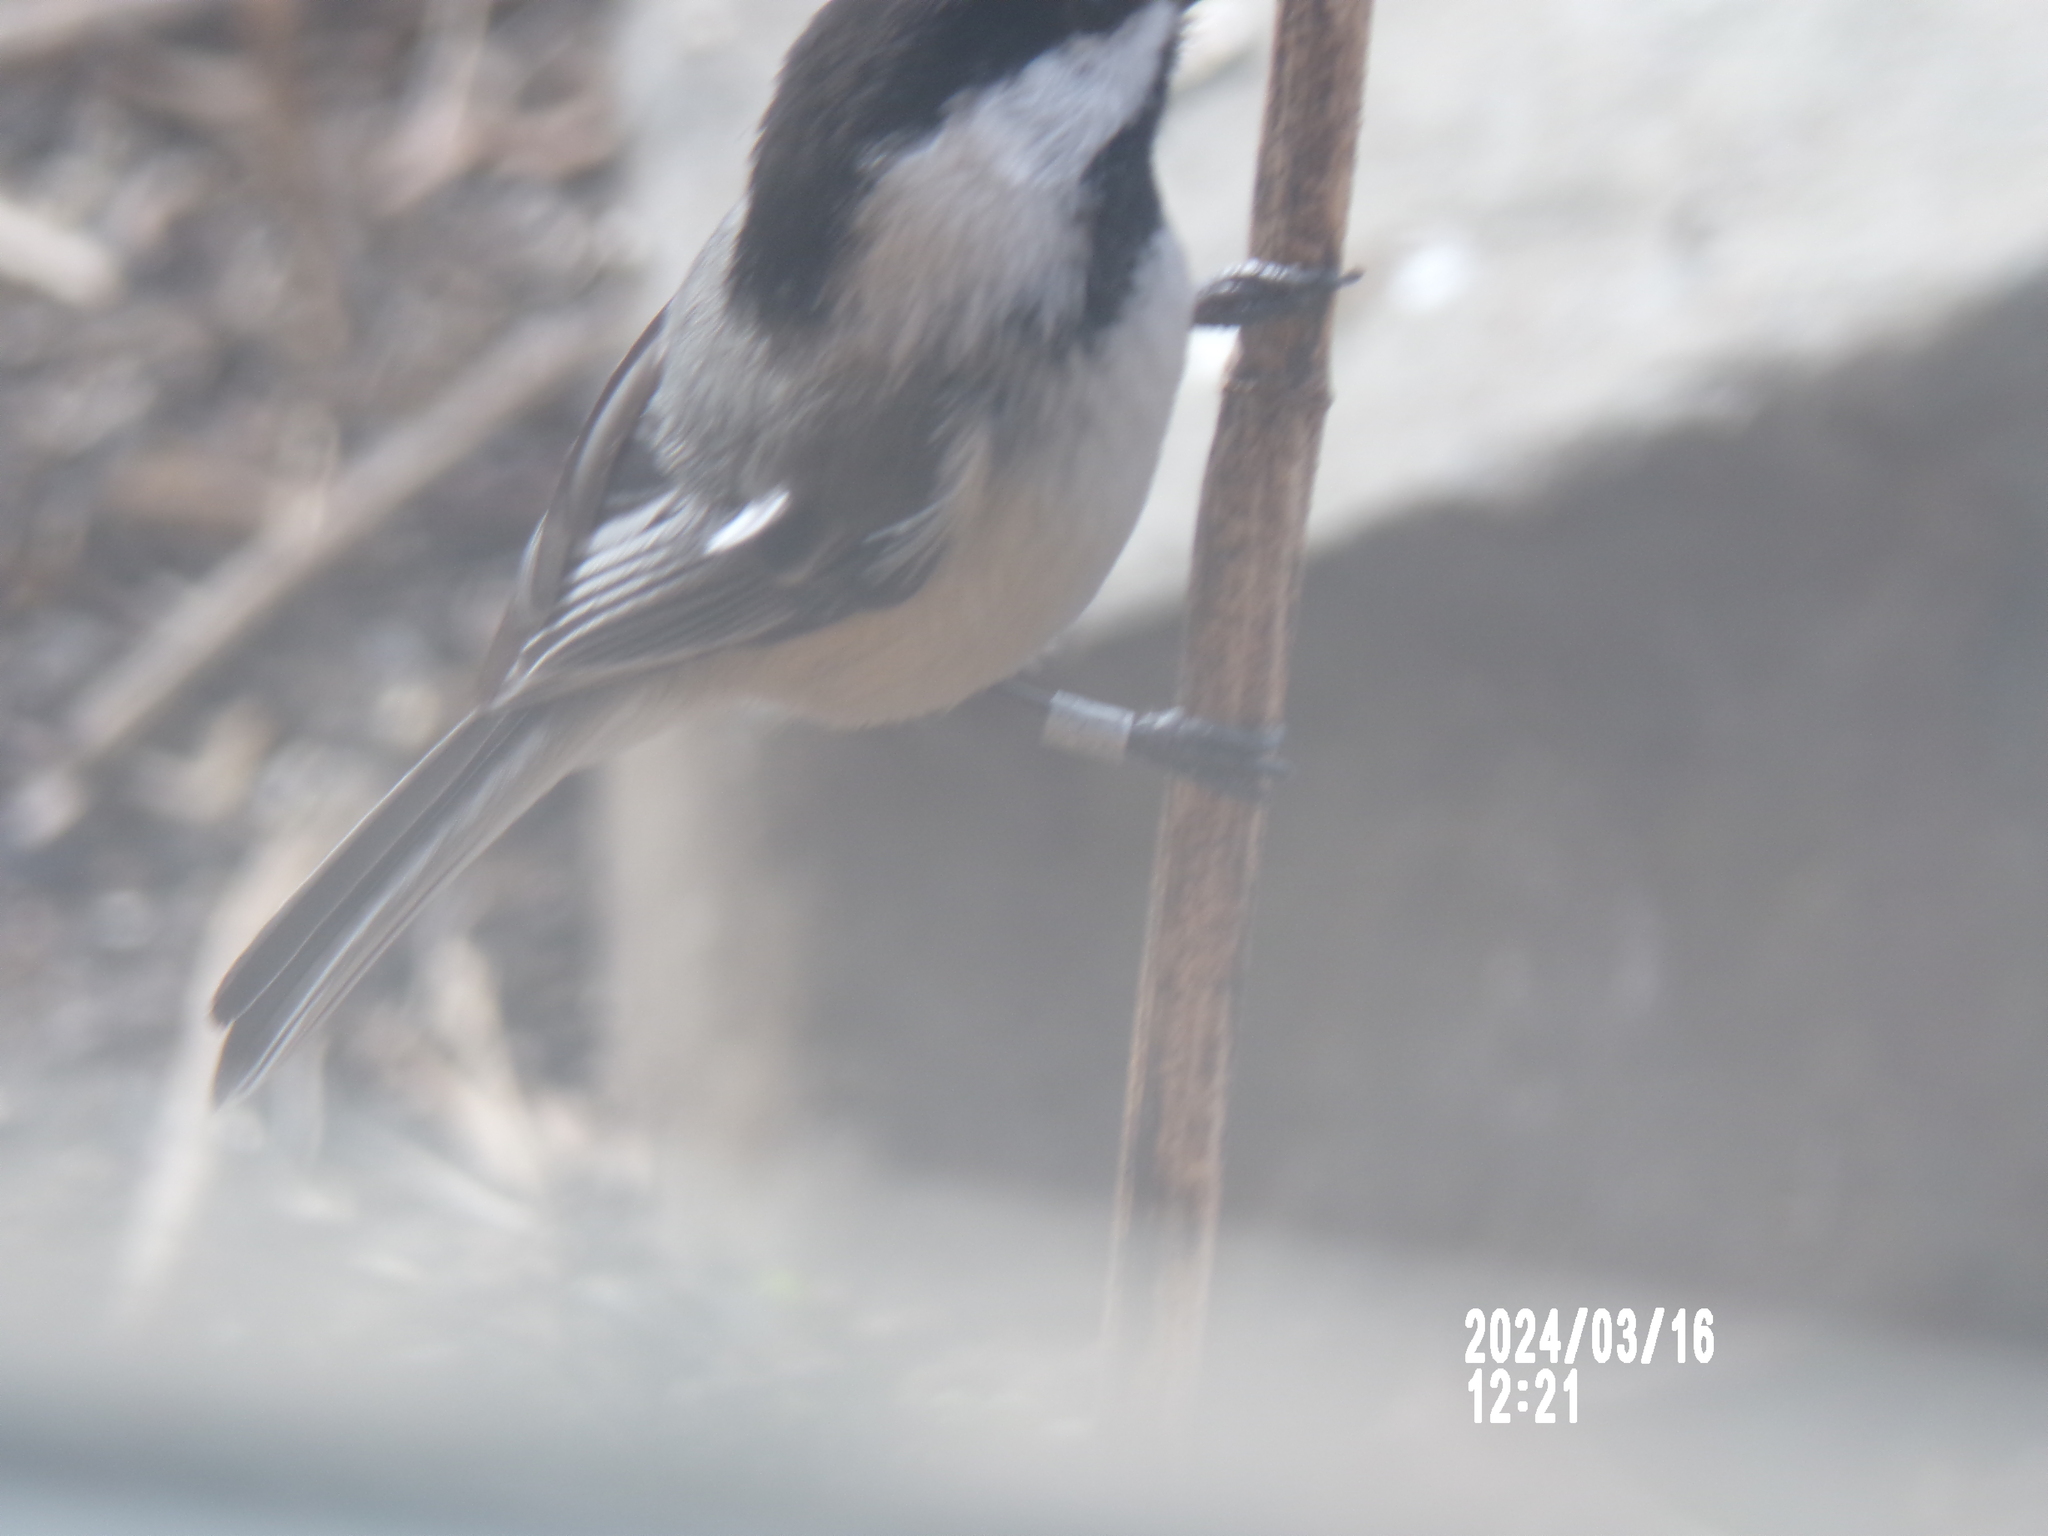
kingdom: Animalia
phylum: Chordata
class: Aves
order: Passeriformes
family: Paridae
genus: Poecile
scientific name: Poecile atricapillus
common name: Black-capped chickadee
